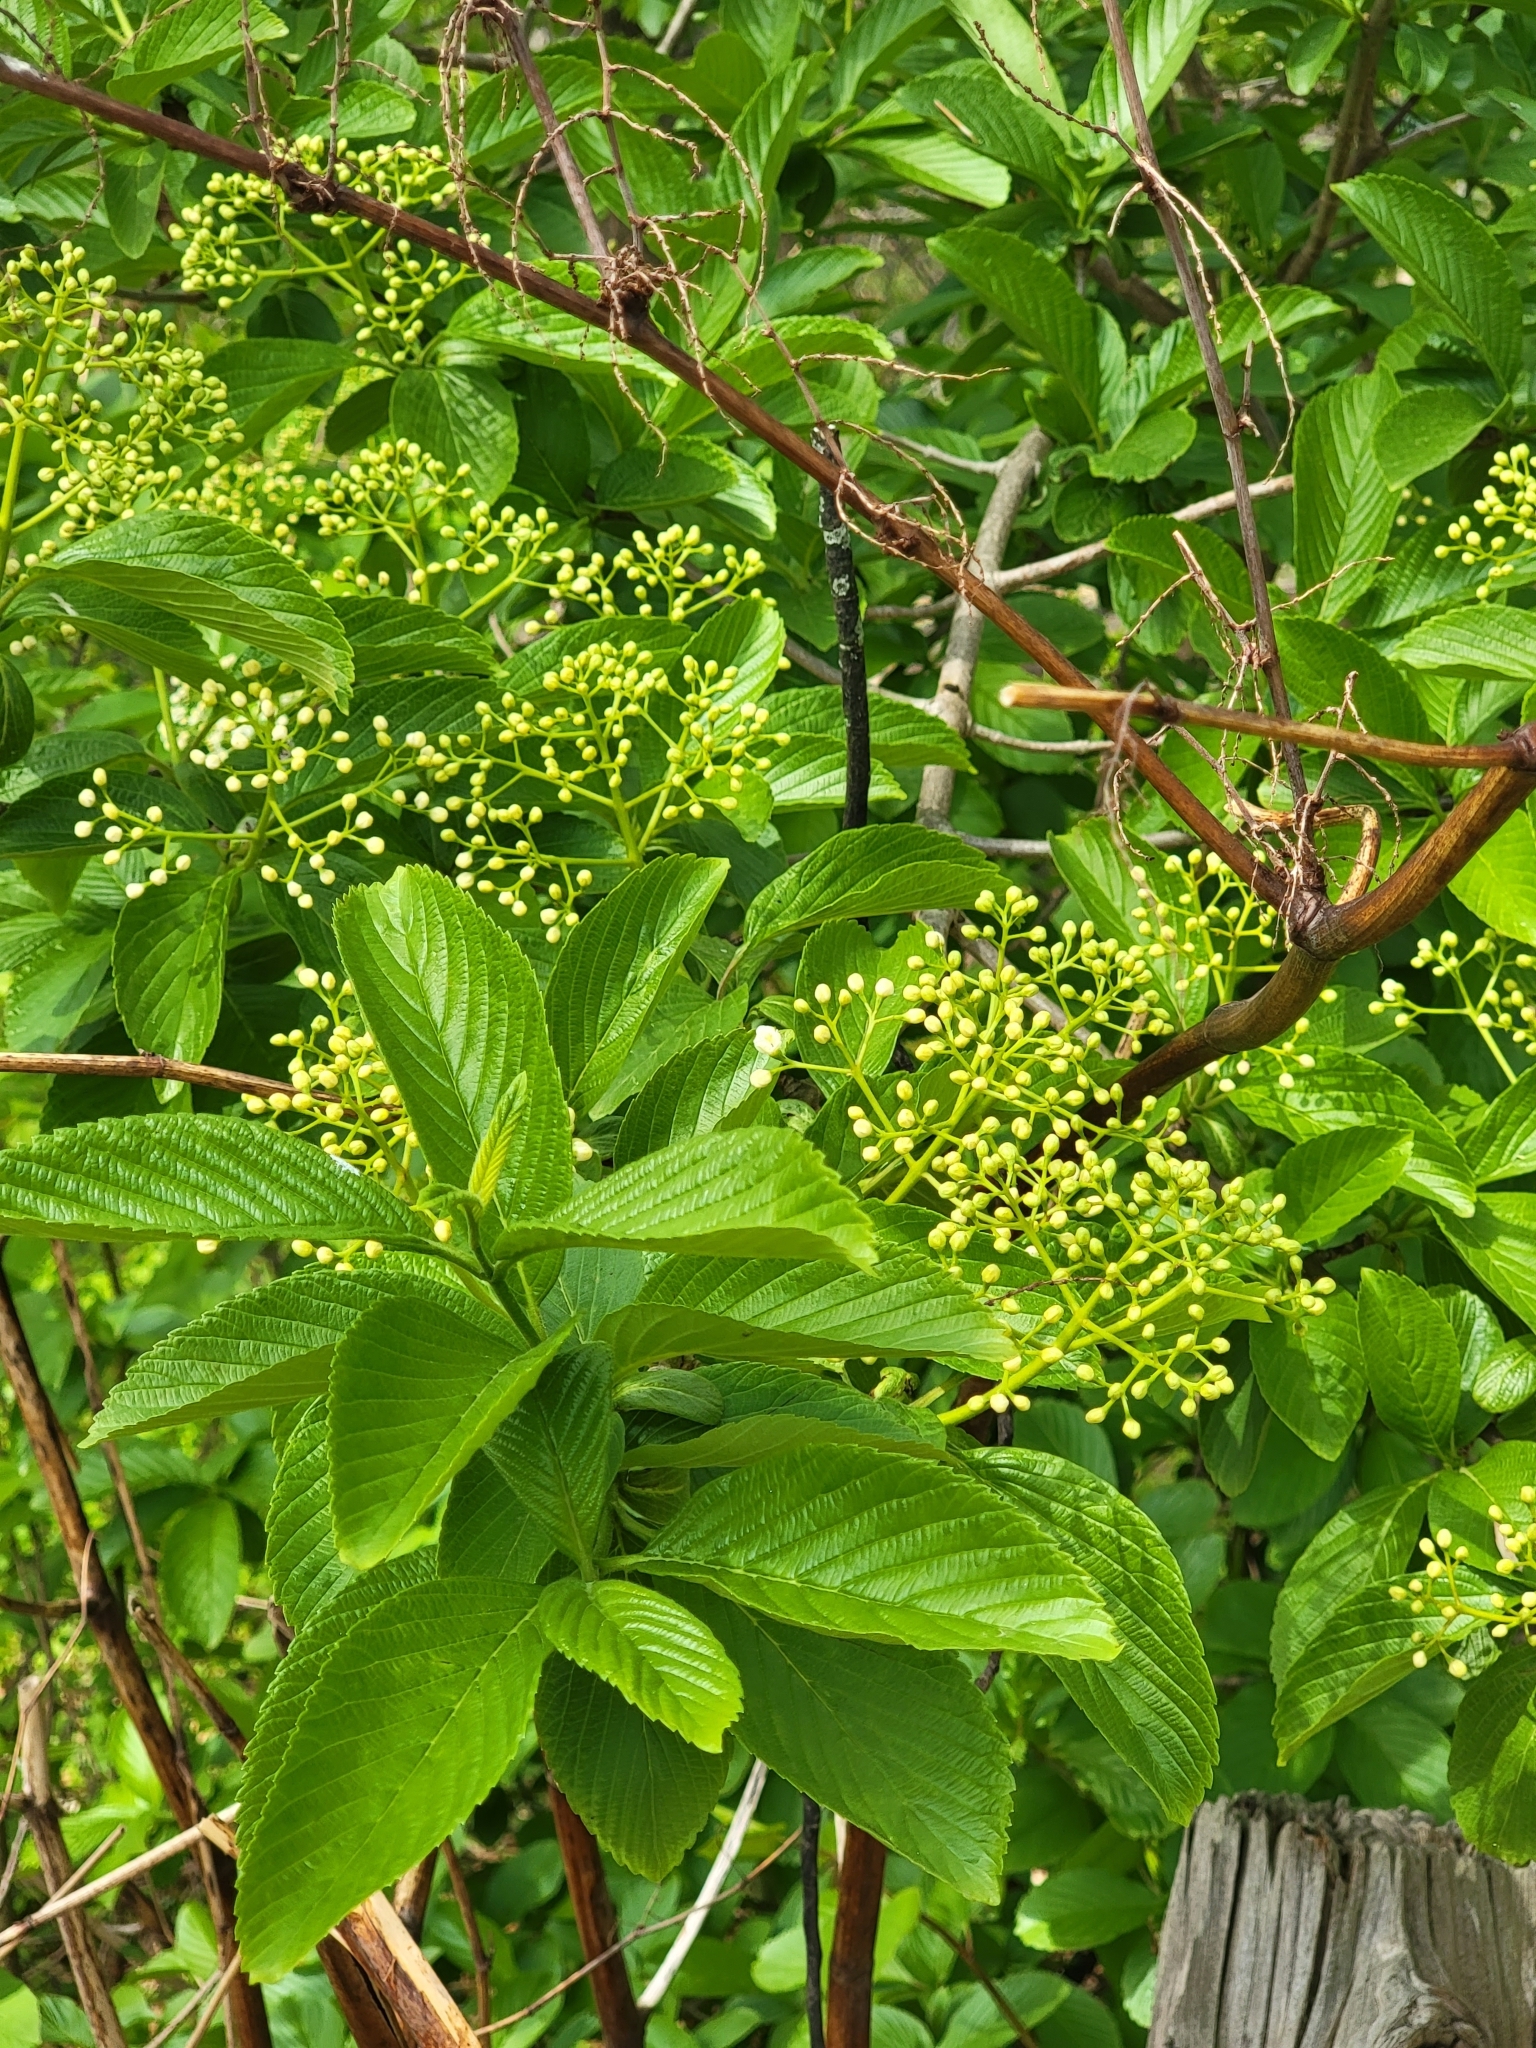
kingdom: Plantae
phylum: Tracheophyta
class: Magnoliopsida
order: Dipsacales
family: Viburnaceae
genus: Viburnum
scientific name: Viburnum sieboldii
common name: Siebold's arrowwood
